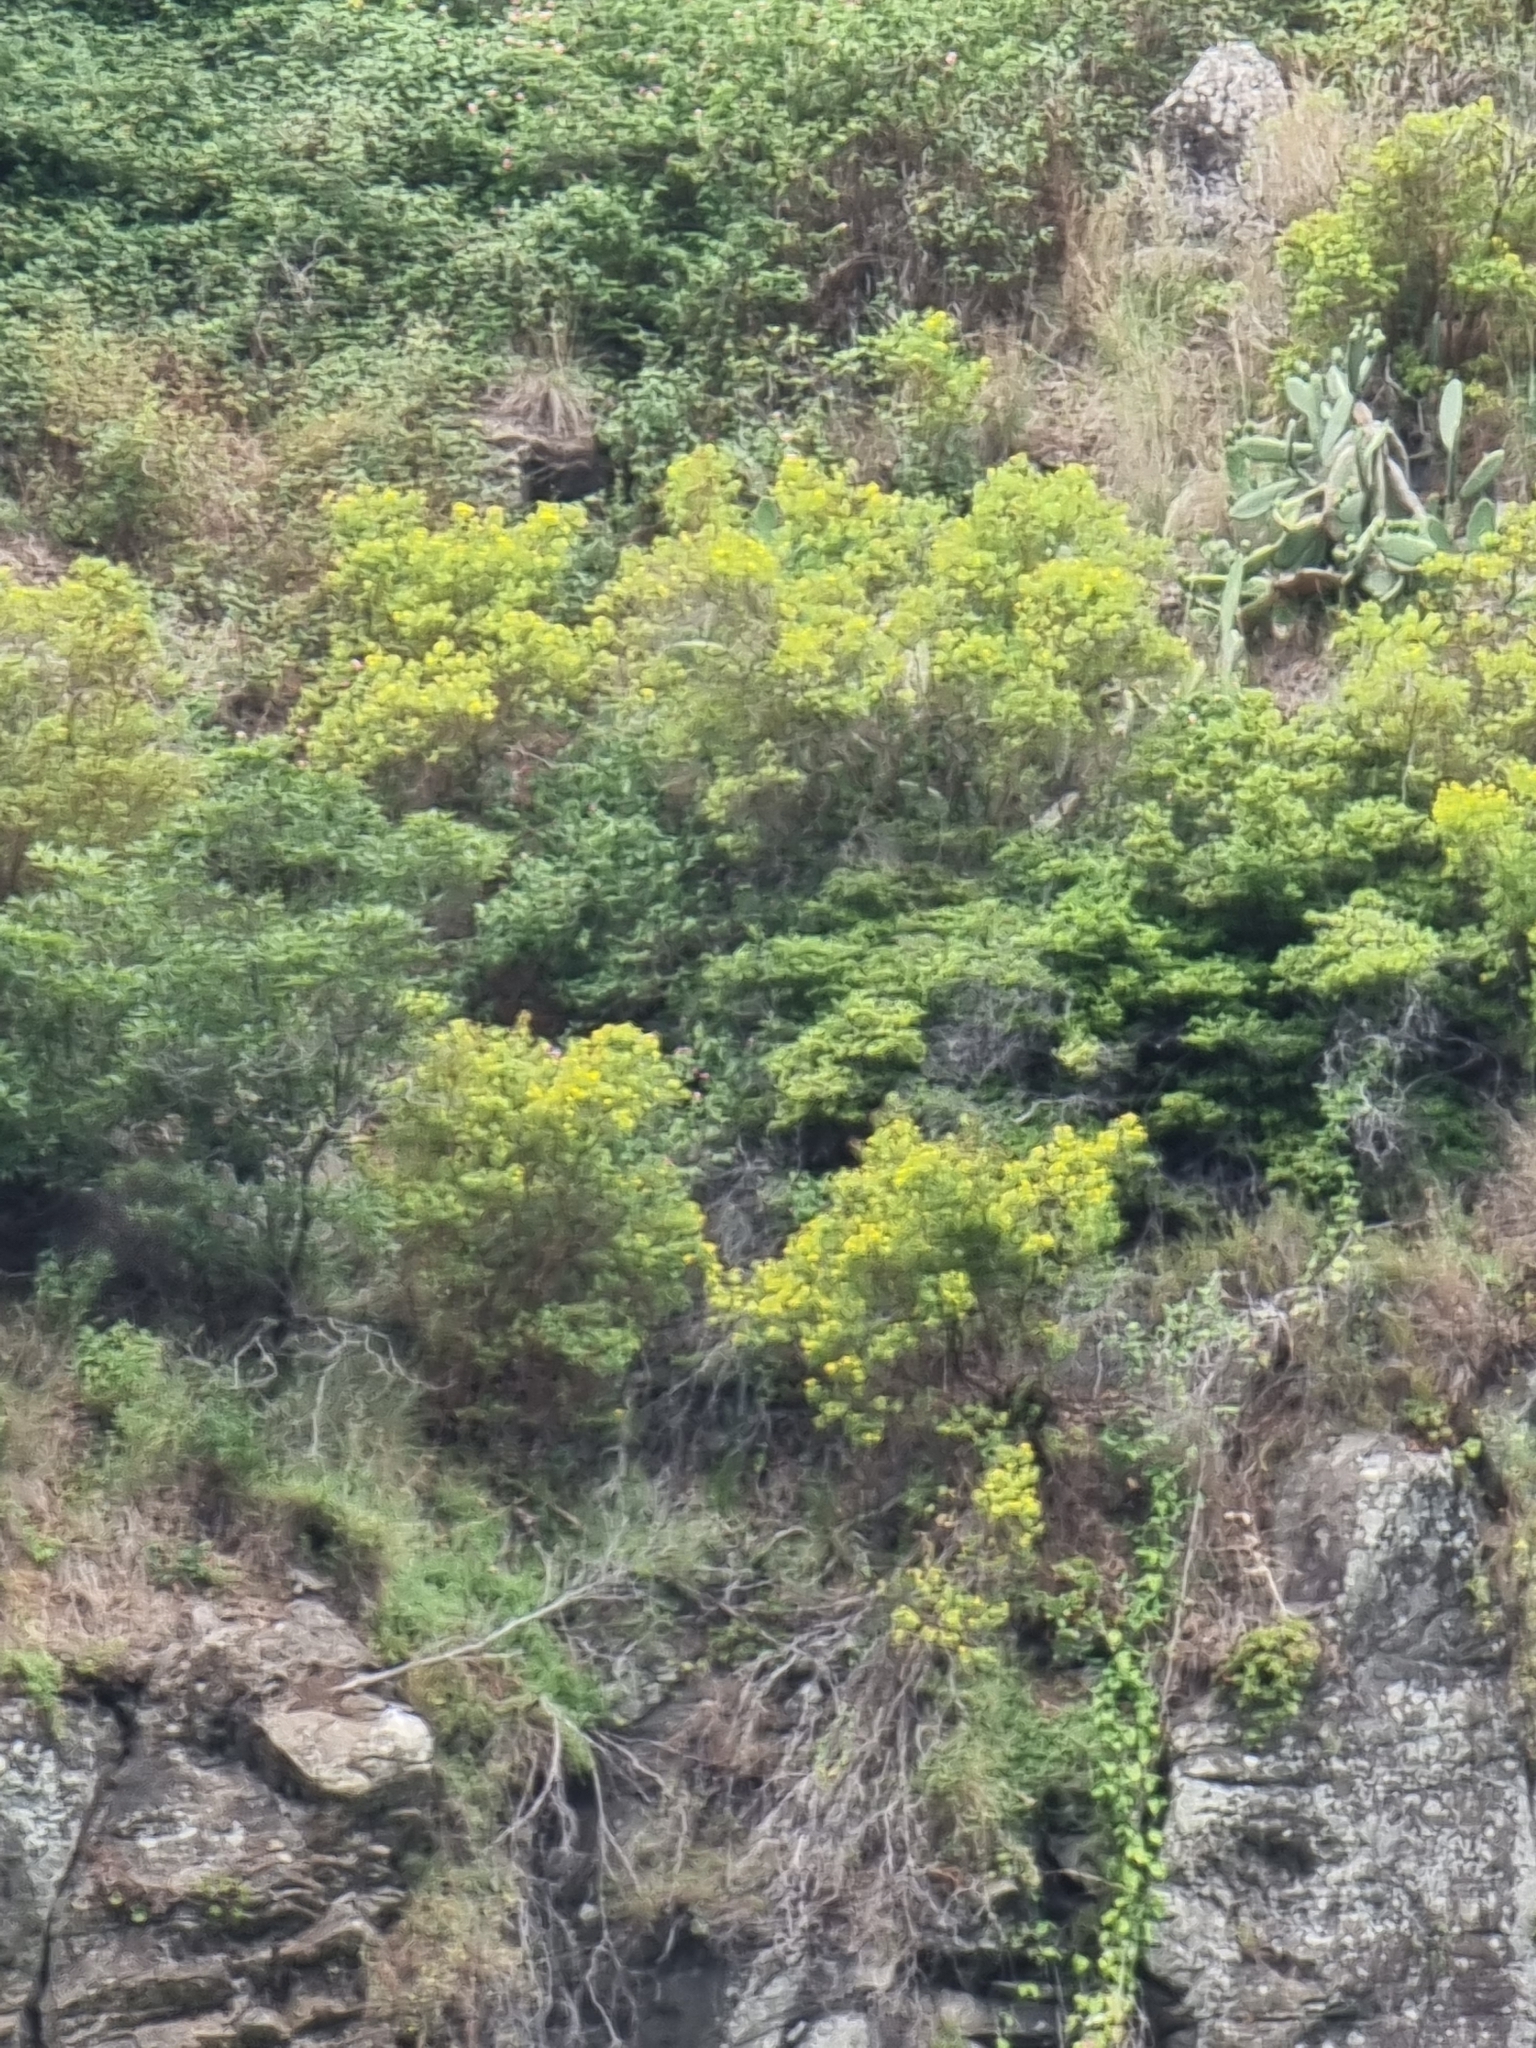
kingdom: Plantae
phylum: Tracheophyta
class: Magnoliopsida
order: Malpighiales
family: Hypericaceae
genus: Hypericum
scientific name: Hypericum canariense
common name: Canary island st. johnswort
